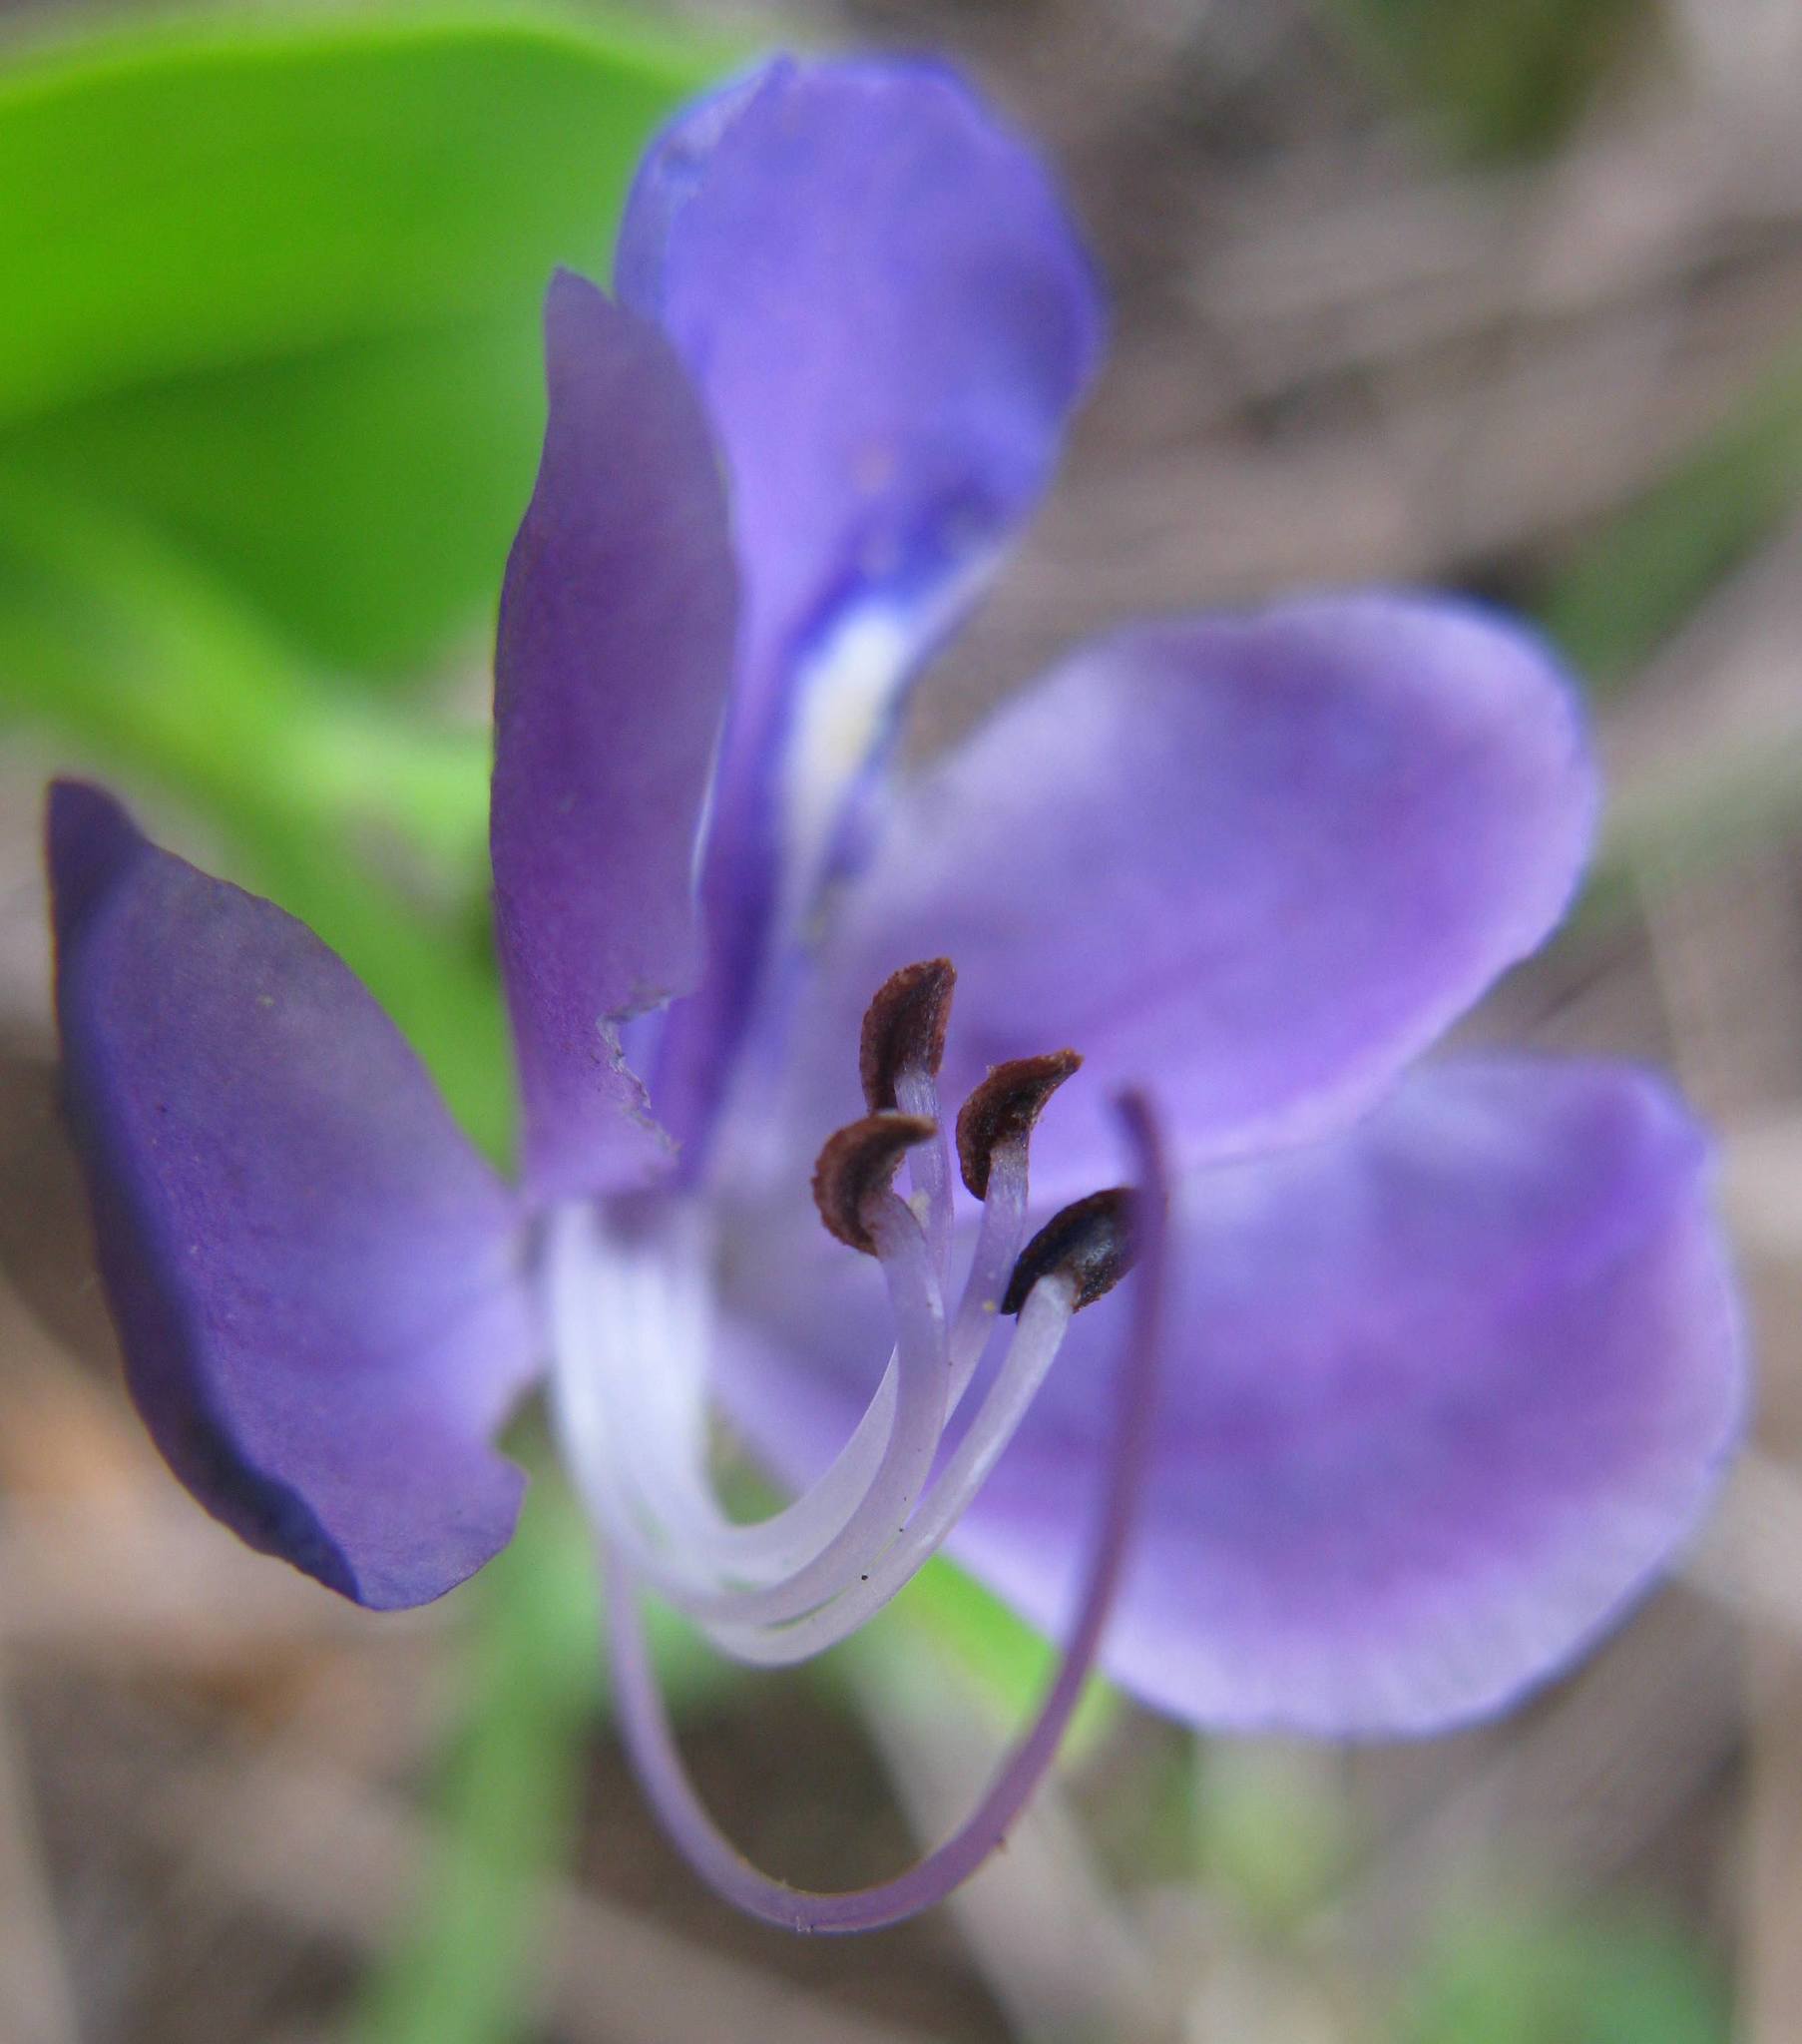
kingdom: Plantae
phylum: Tracheophyta
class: Magnoliopsida
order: Lamiales
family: Lamiaceae
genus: Rotheca
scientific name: Rotheca hirsuta
